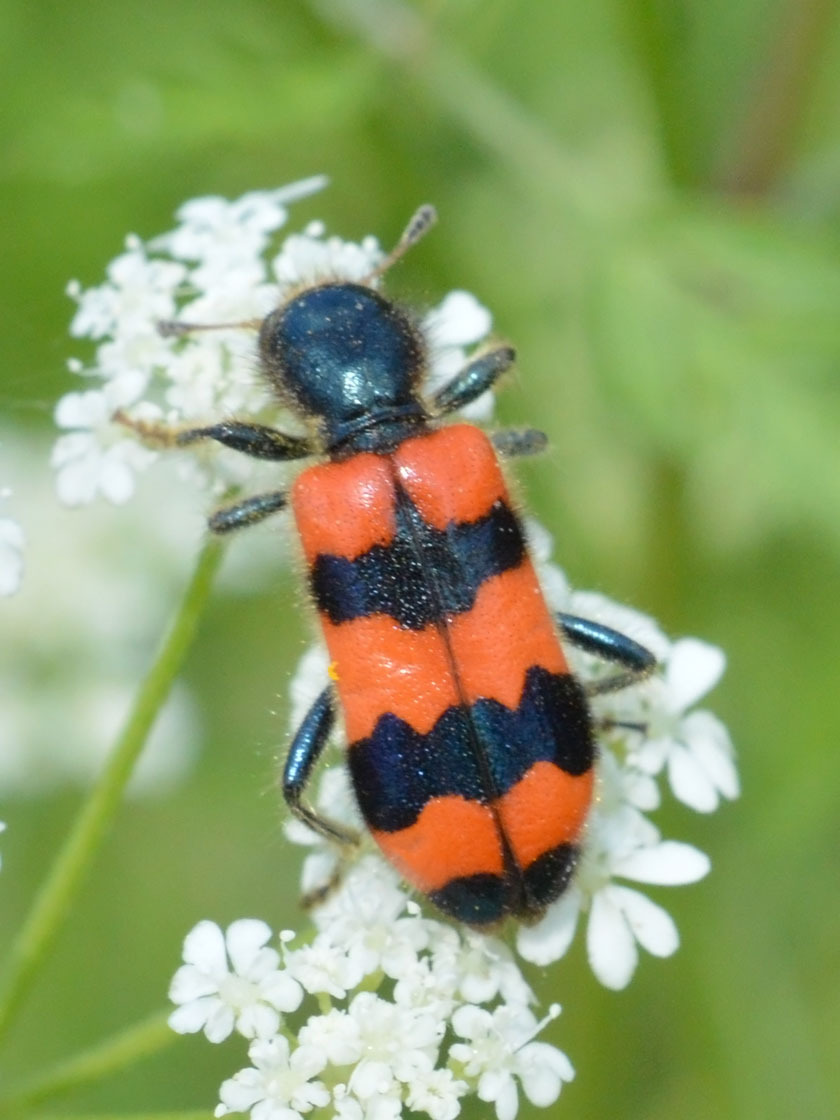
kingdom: Animalia
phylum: Arthropoda
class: Insecta
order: Coleoptera
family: Cleridae
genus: Trichodes
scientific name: Trichodes apiarius
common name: Bee-eating beetle
